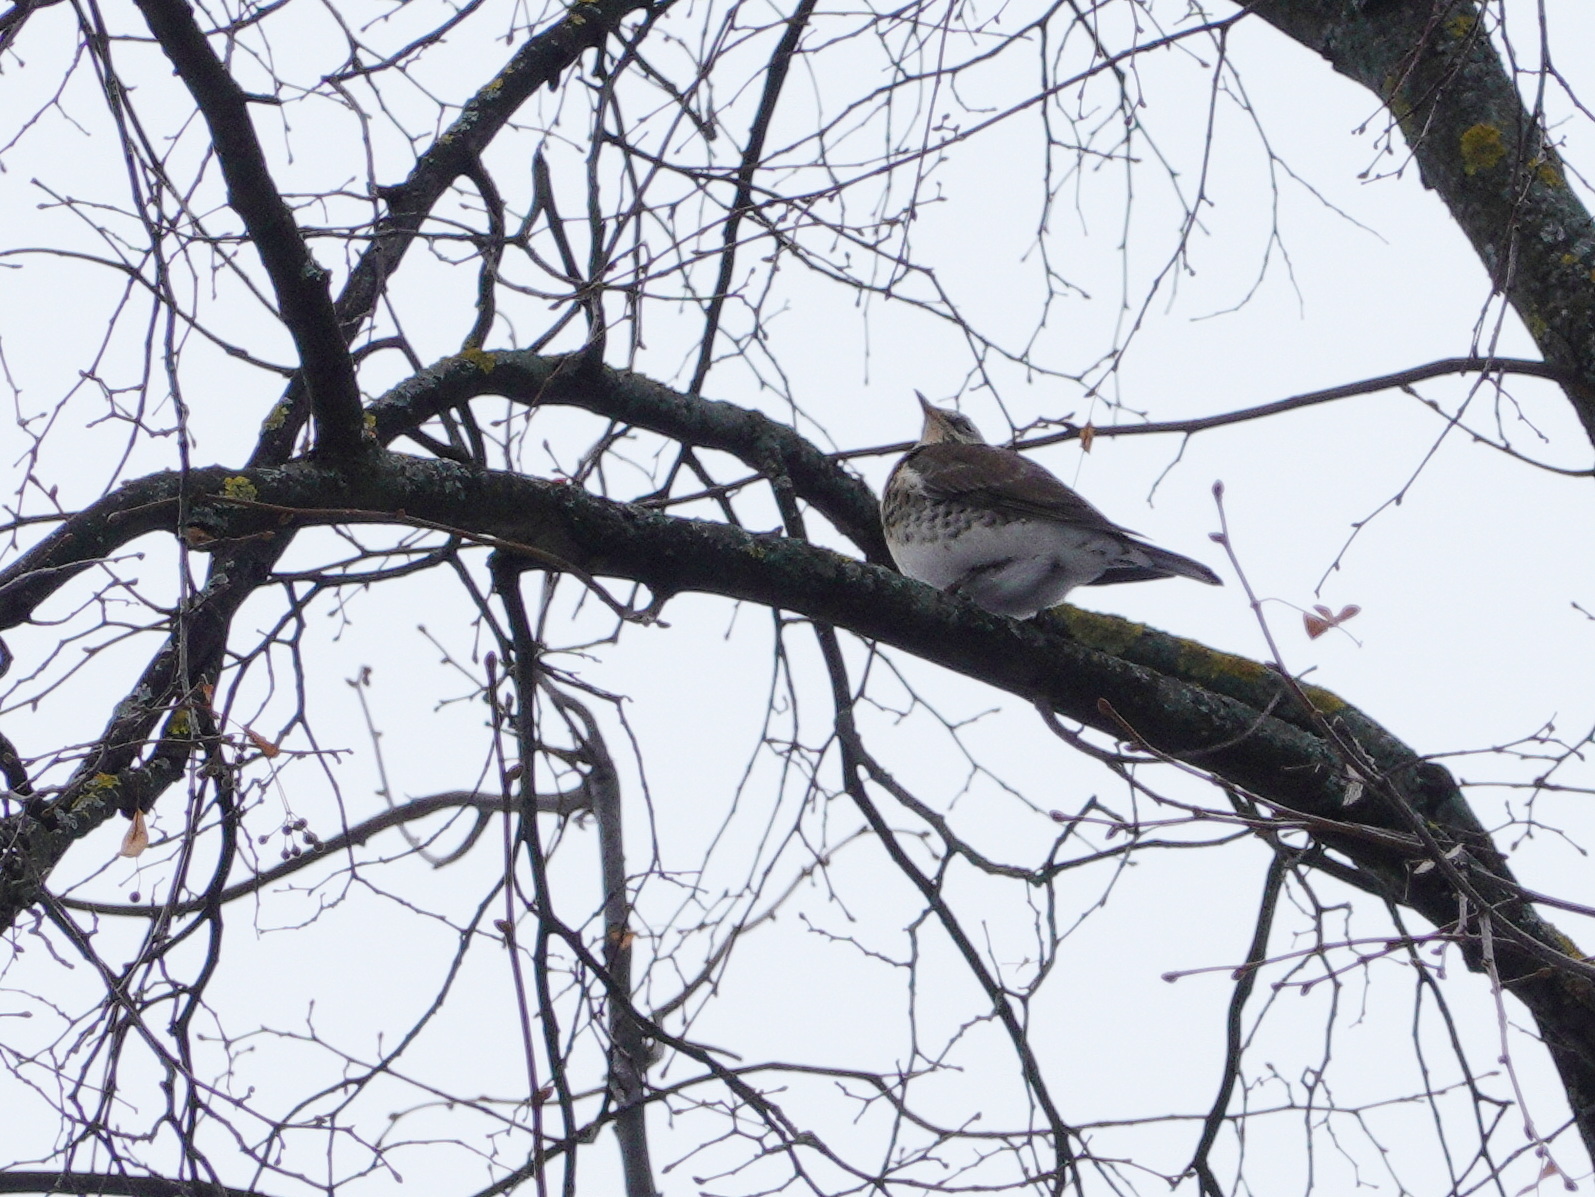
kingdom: Animalia
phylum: Chordata
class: Aves
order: Passeriformes
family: Turdidae
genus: Turdus
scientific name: Turdus pilaris
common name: Fieldfare
